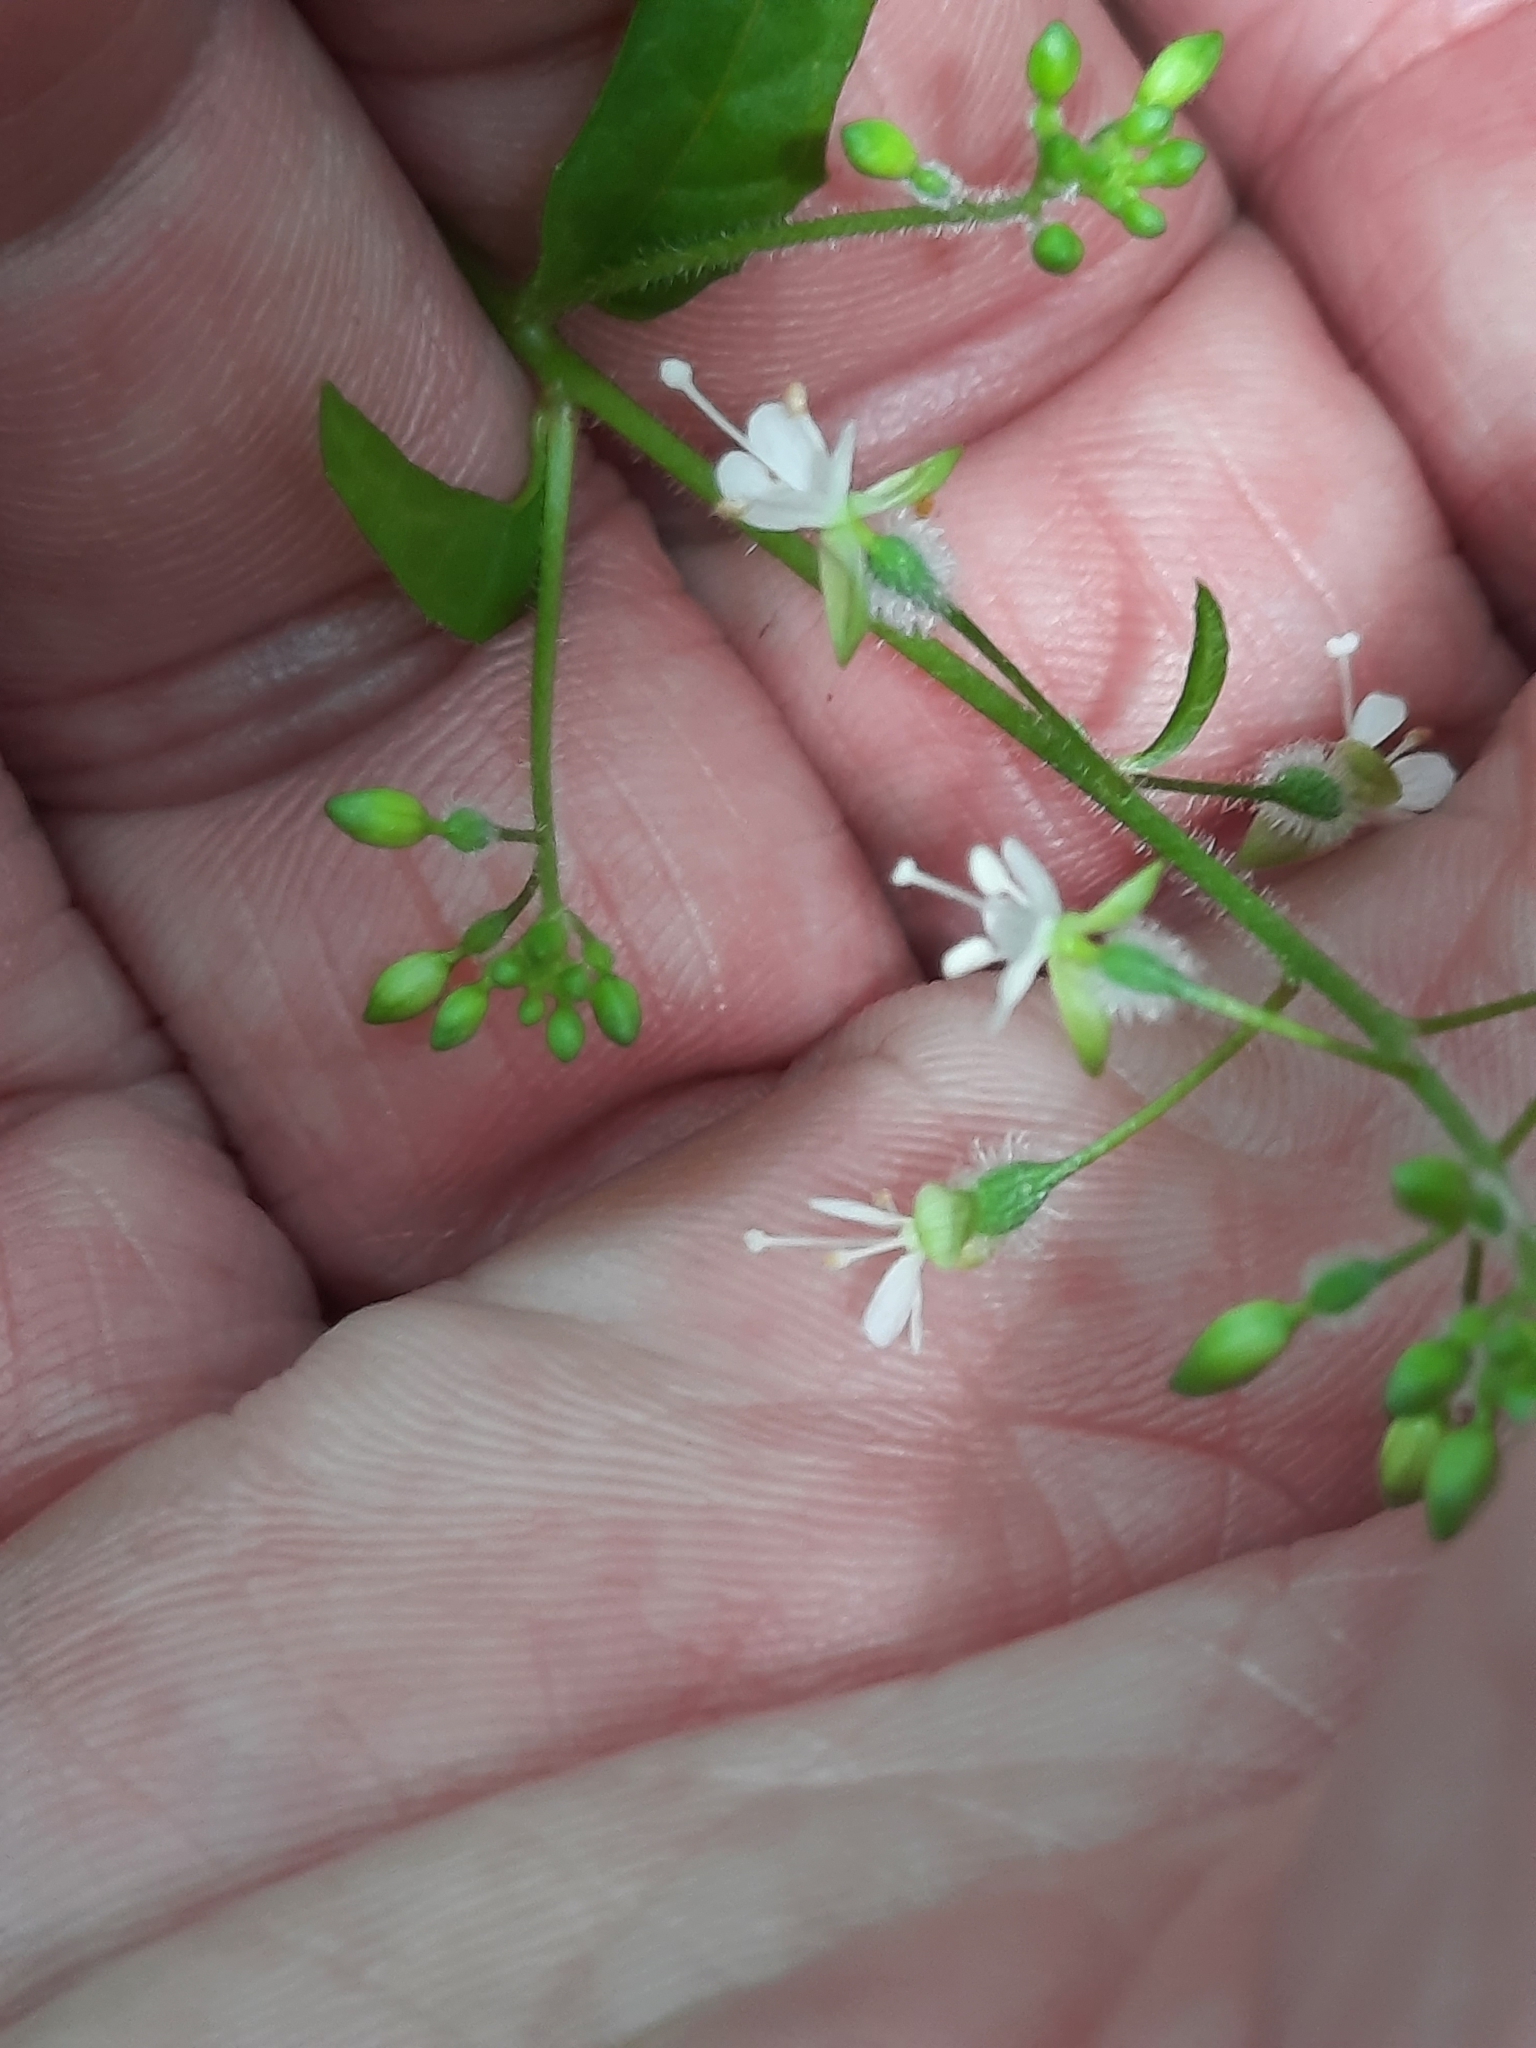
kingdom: Plantae
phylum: Tracheophyta
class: Magnoliopsida
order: Myrtales
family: Onagraceae
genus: Circaea
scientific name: Circaea canadensis
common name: Broad-leaved enchanter's nightshade
